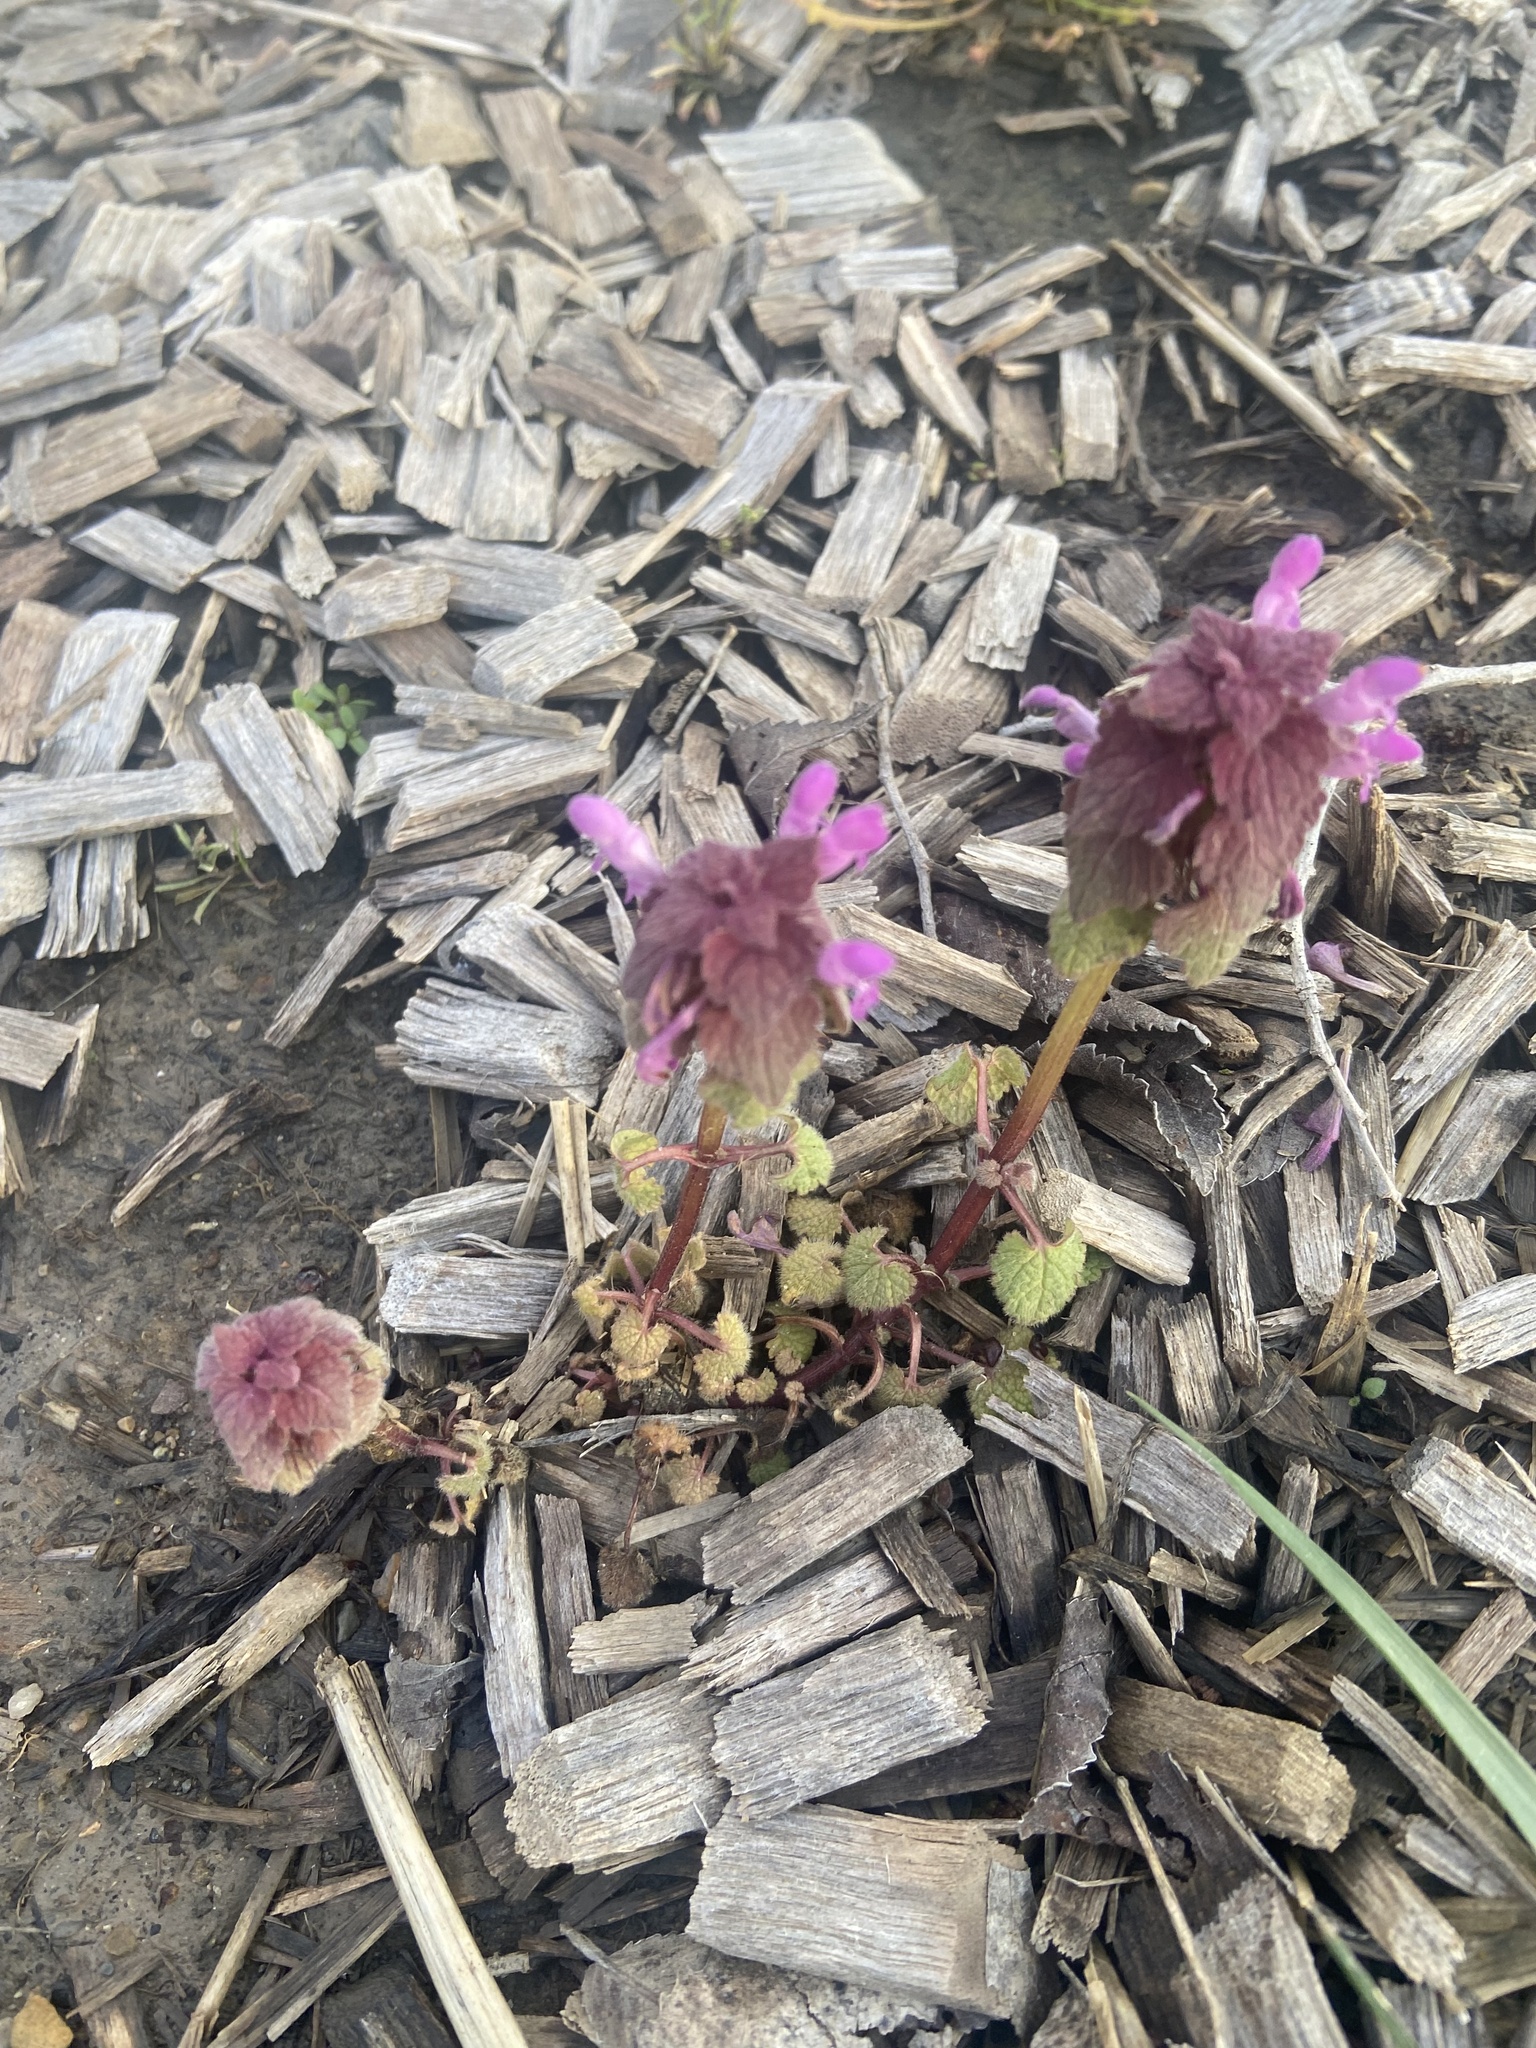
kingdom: Plantae
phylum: Tracheophyta
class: Magnoliopsida
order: Lamiales
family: Lamiaceae
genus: Lamium
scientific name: Lamium purpureum
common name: Red dead-nettle
